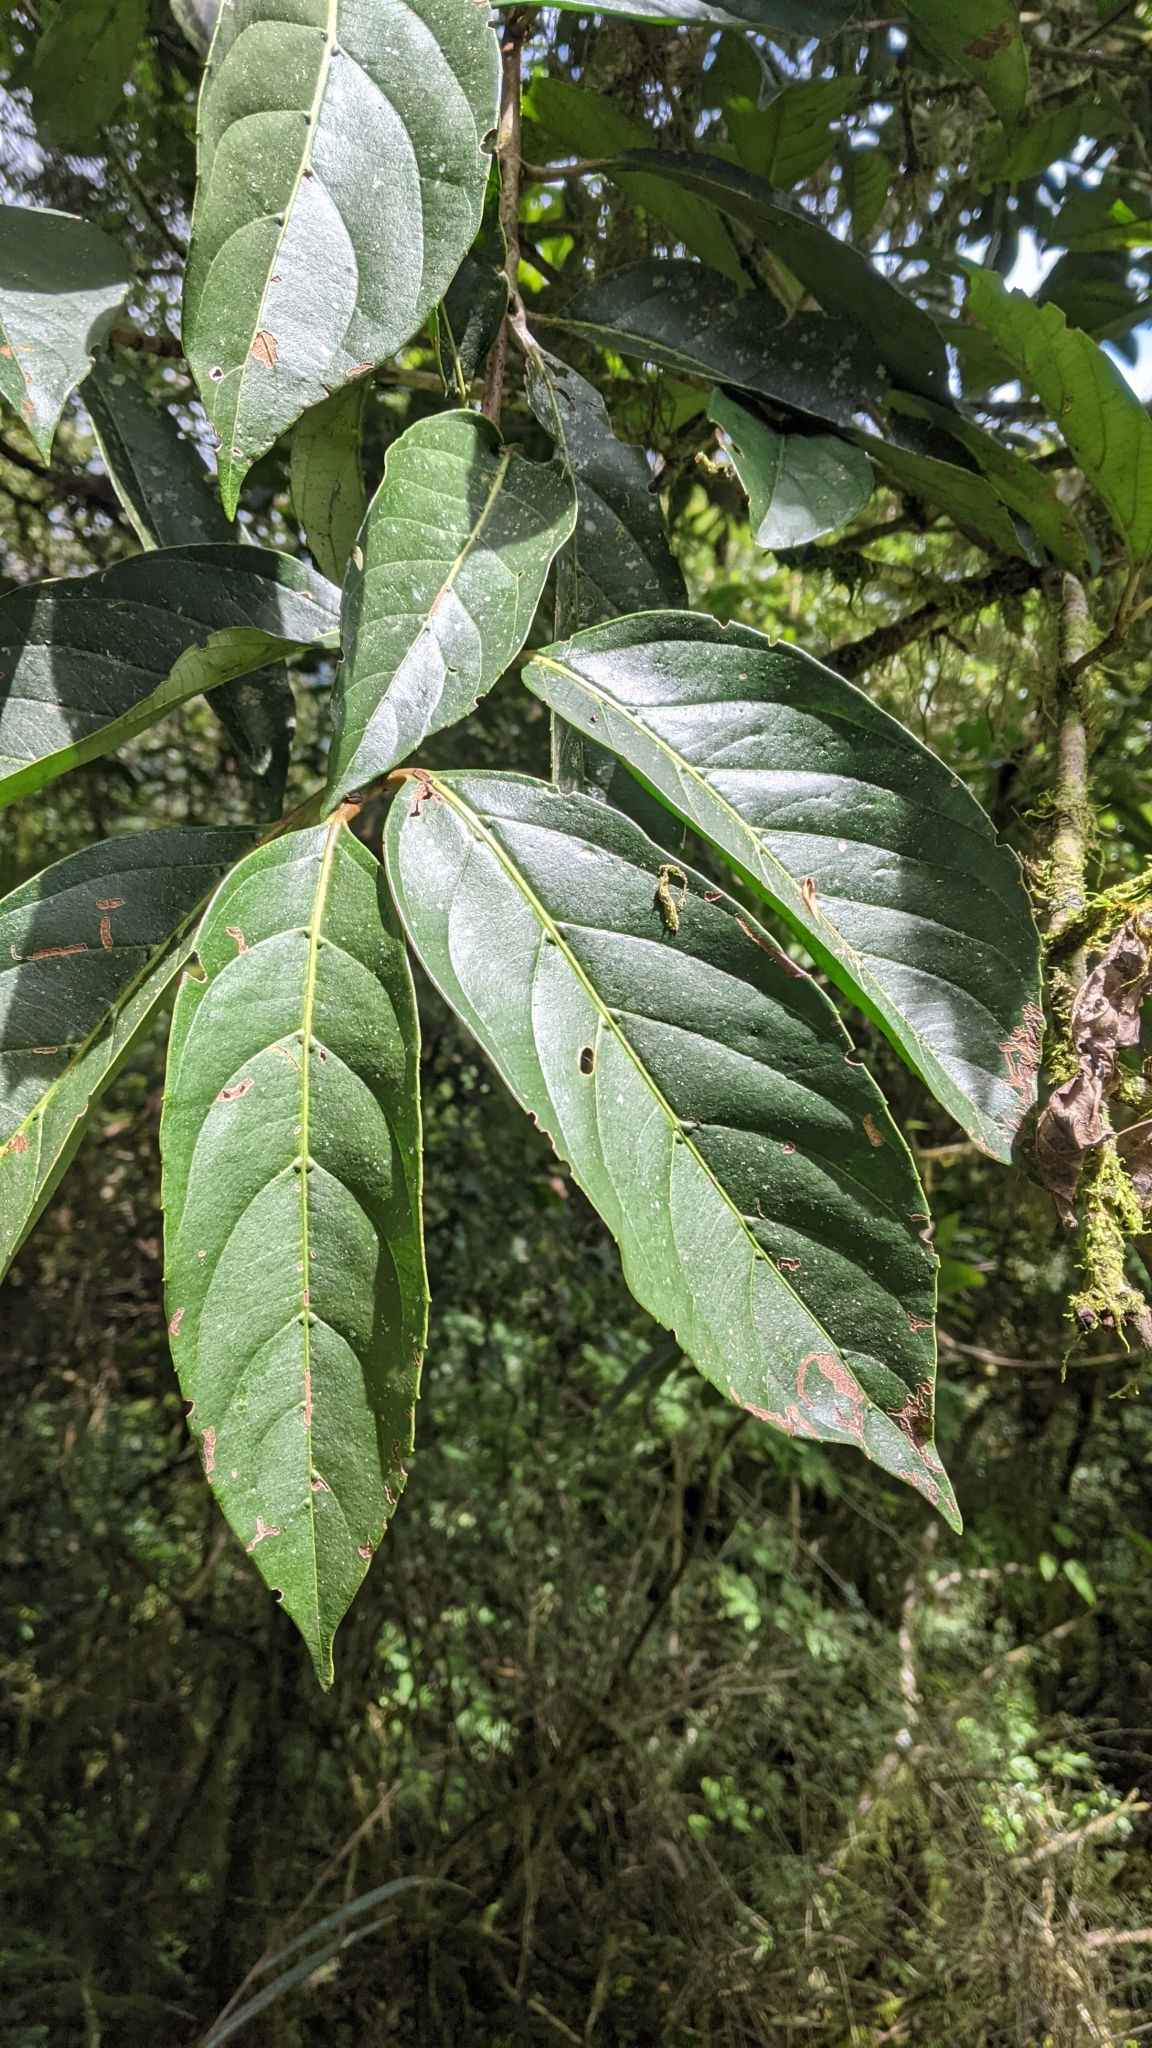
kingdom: Plantae
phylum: Tracheophyta
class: Magnoliopsida
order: Dipsacales
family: Viburnaceae
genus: Viburnum
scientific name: Viburnum odoratissimum
